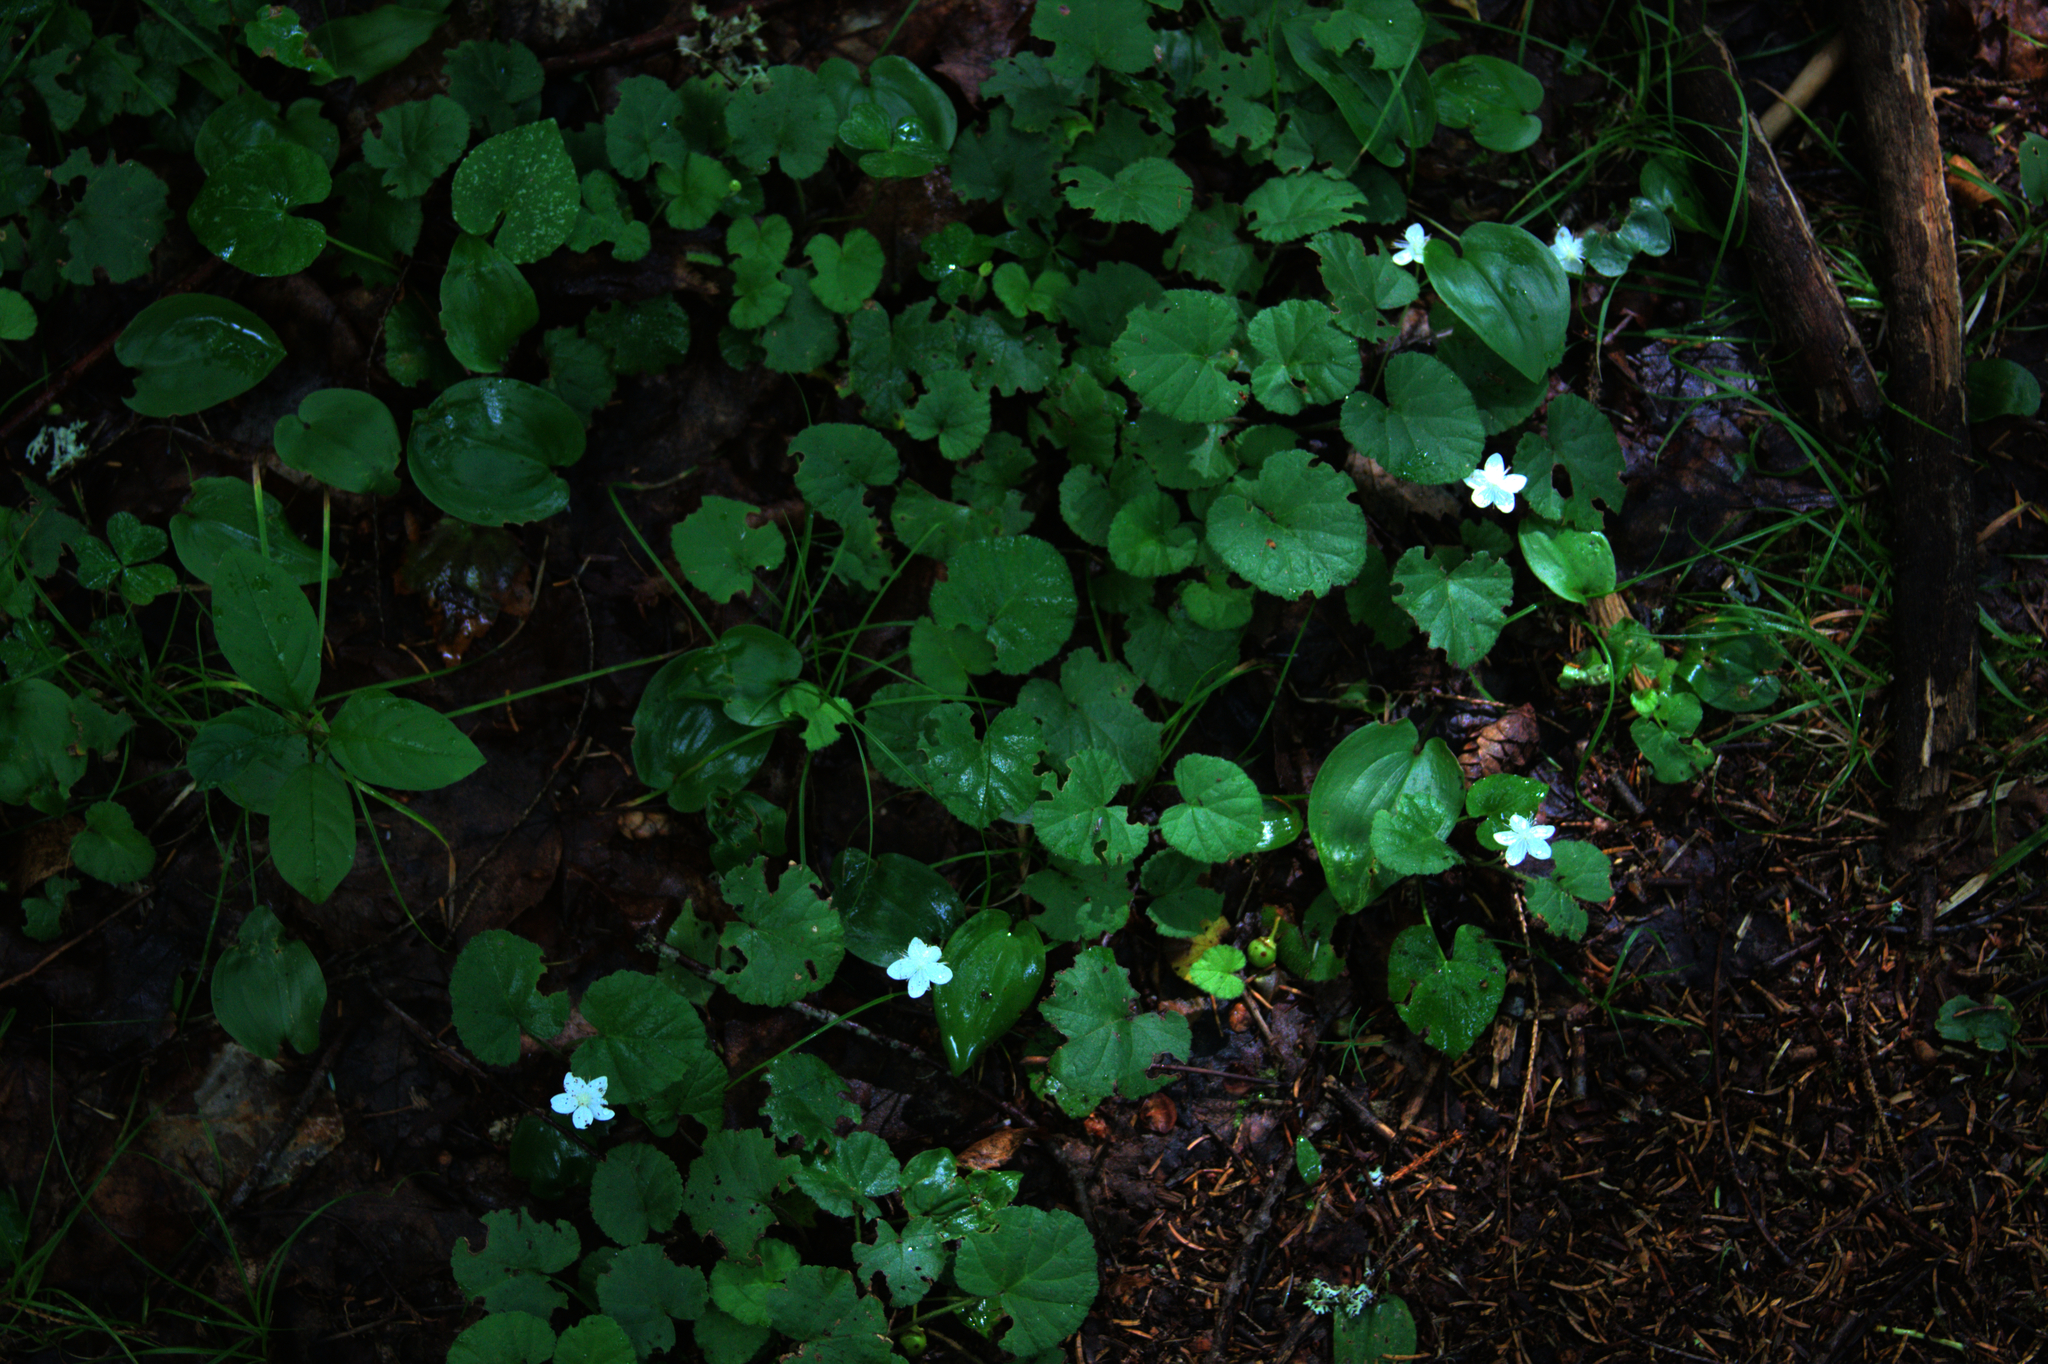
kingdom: Plantae
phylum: Tracheophyta
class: Liliopsida
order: Asparagales
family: Asparagaceae
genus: Maianthemum
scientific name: Maianthemum canadense
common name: False lily-of-the-valley
